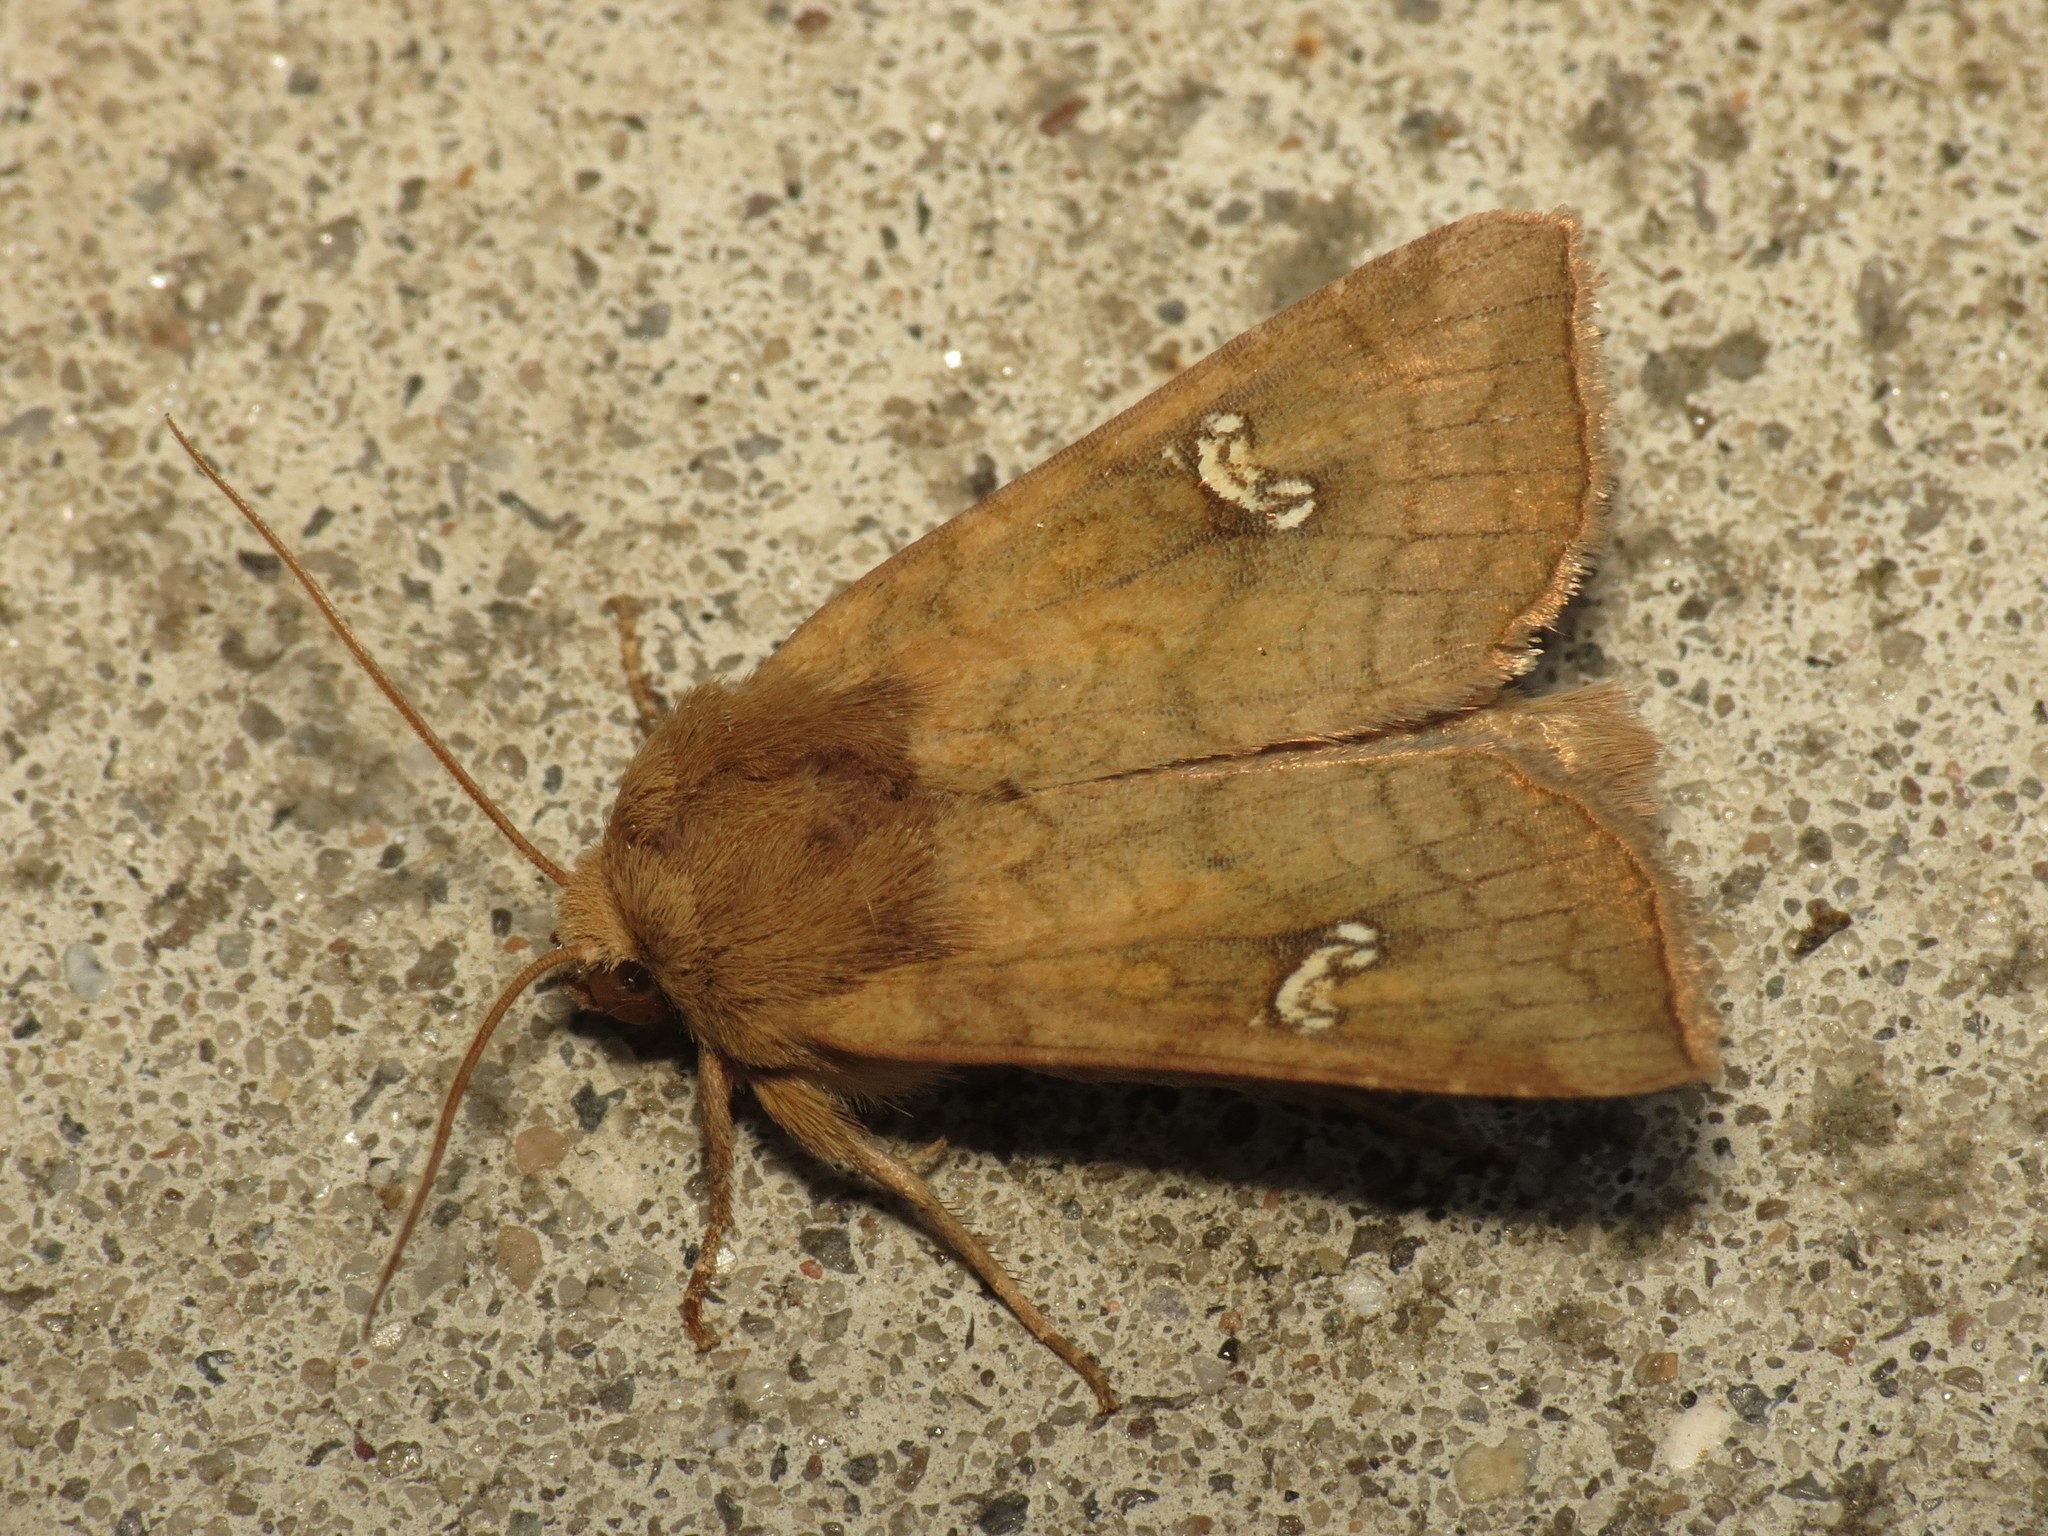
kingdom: Animalia
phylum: Arthropoda
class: Insecta
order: Lepidoptera
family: Noctuidae
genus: Amphipoea
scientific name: Amphipoea
